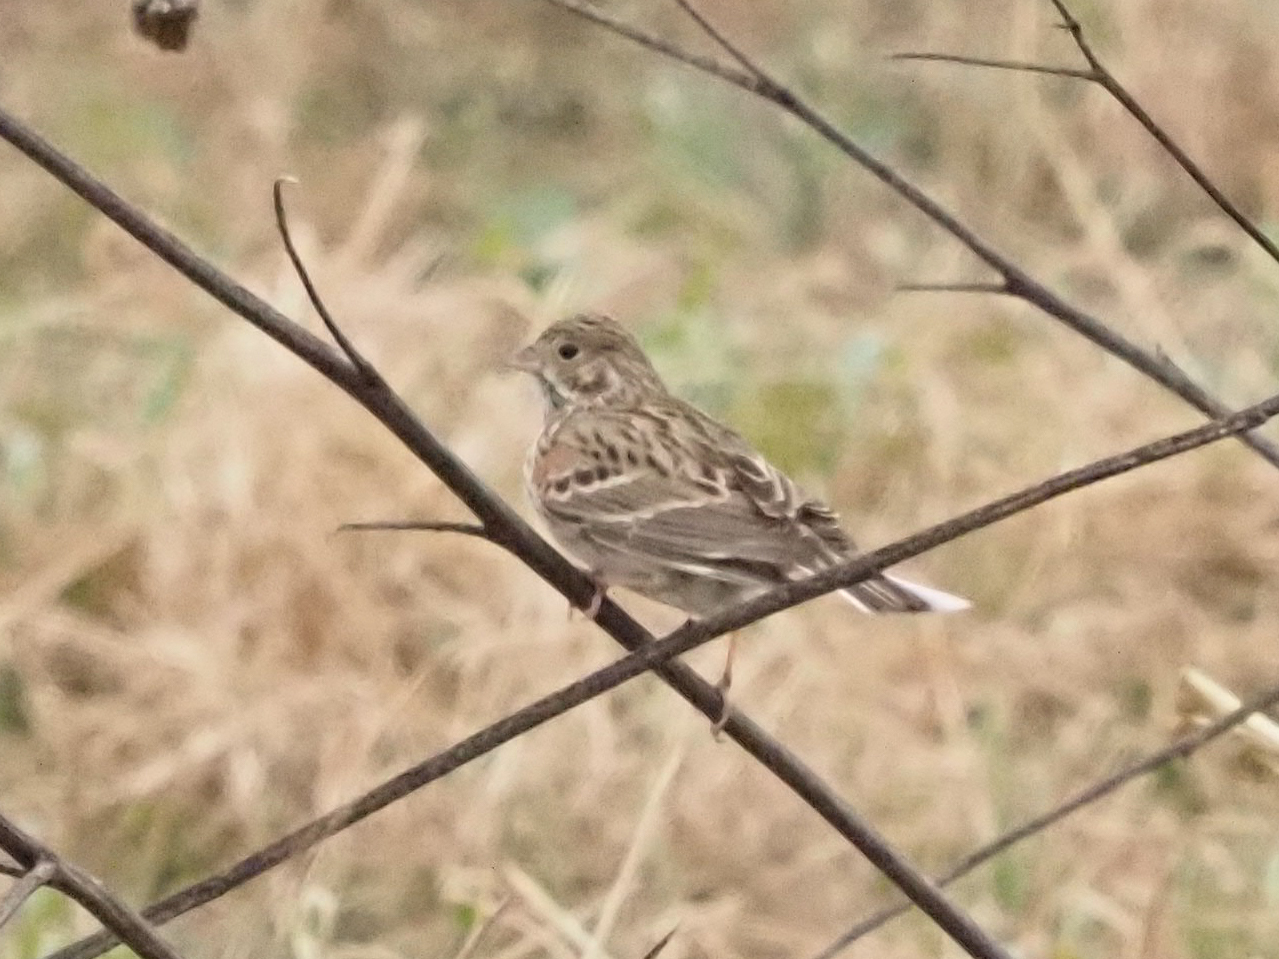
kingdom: Animalia
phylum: Chordata
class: Aves
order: Passeriformes
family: Passerellidae
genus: Pooecetes
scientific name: Pooecetes gramineus
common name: Vesper sparrow
